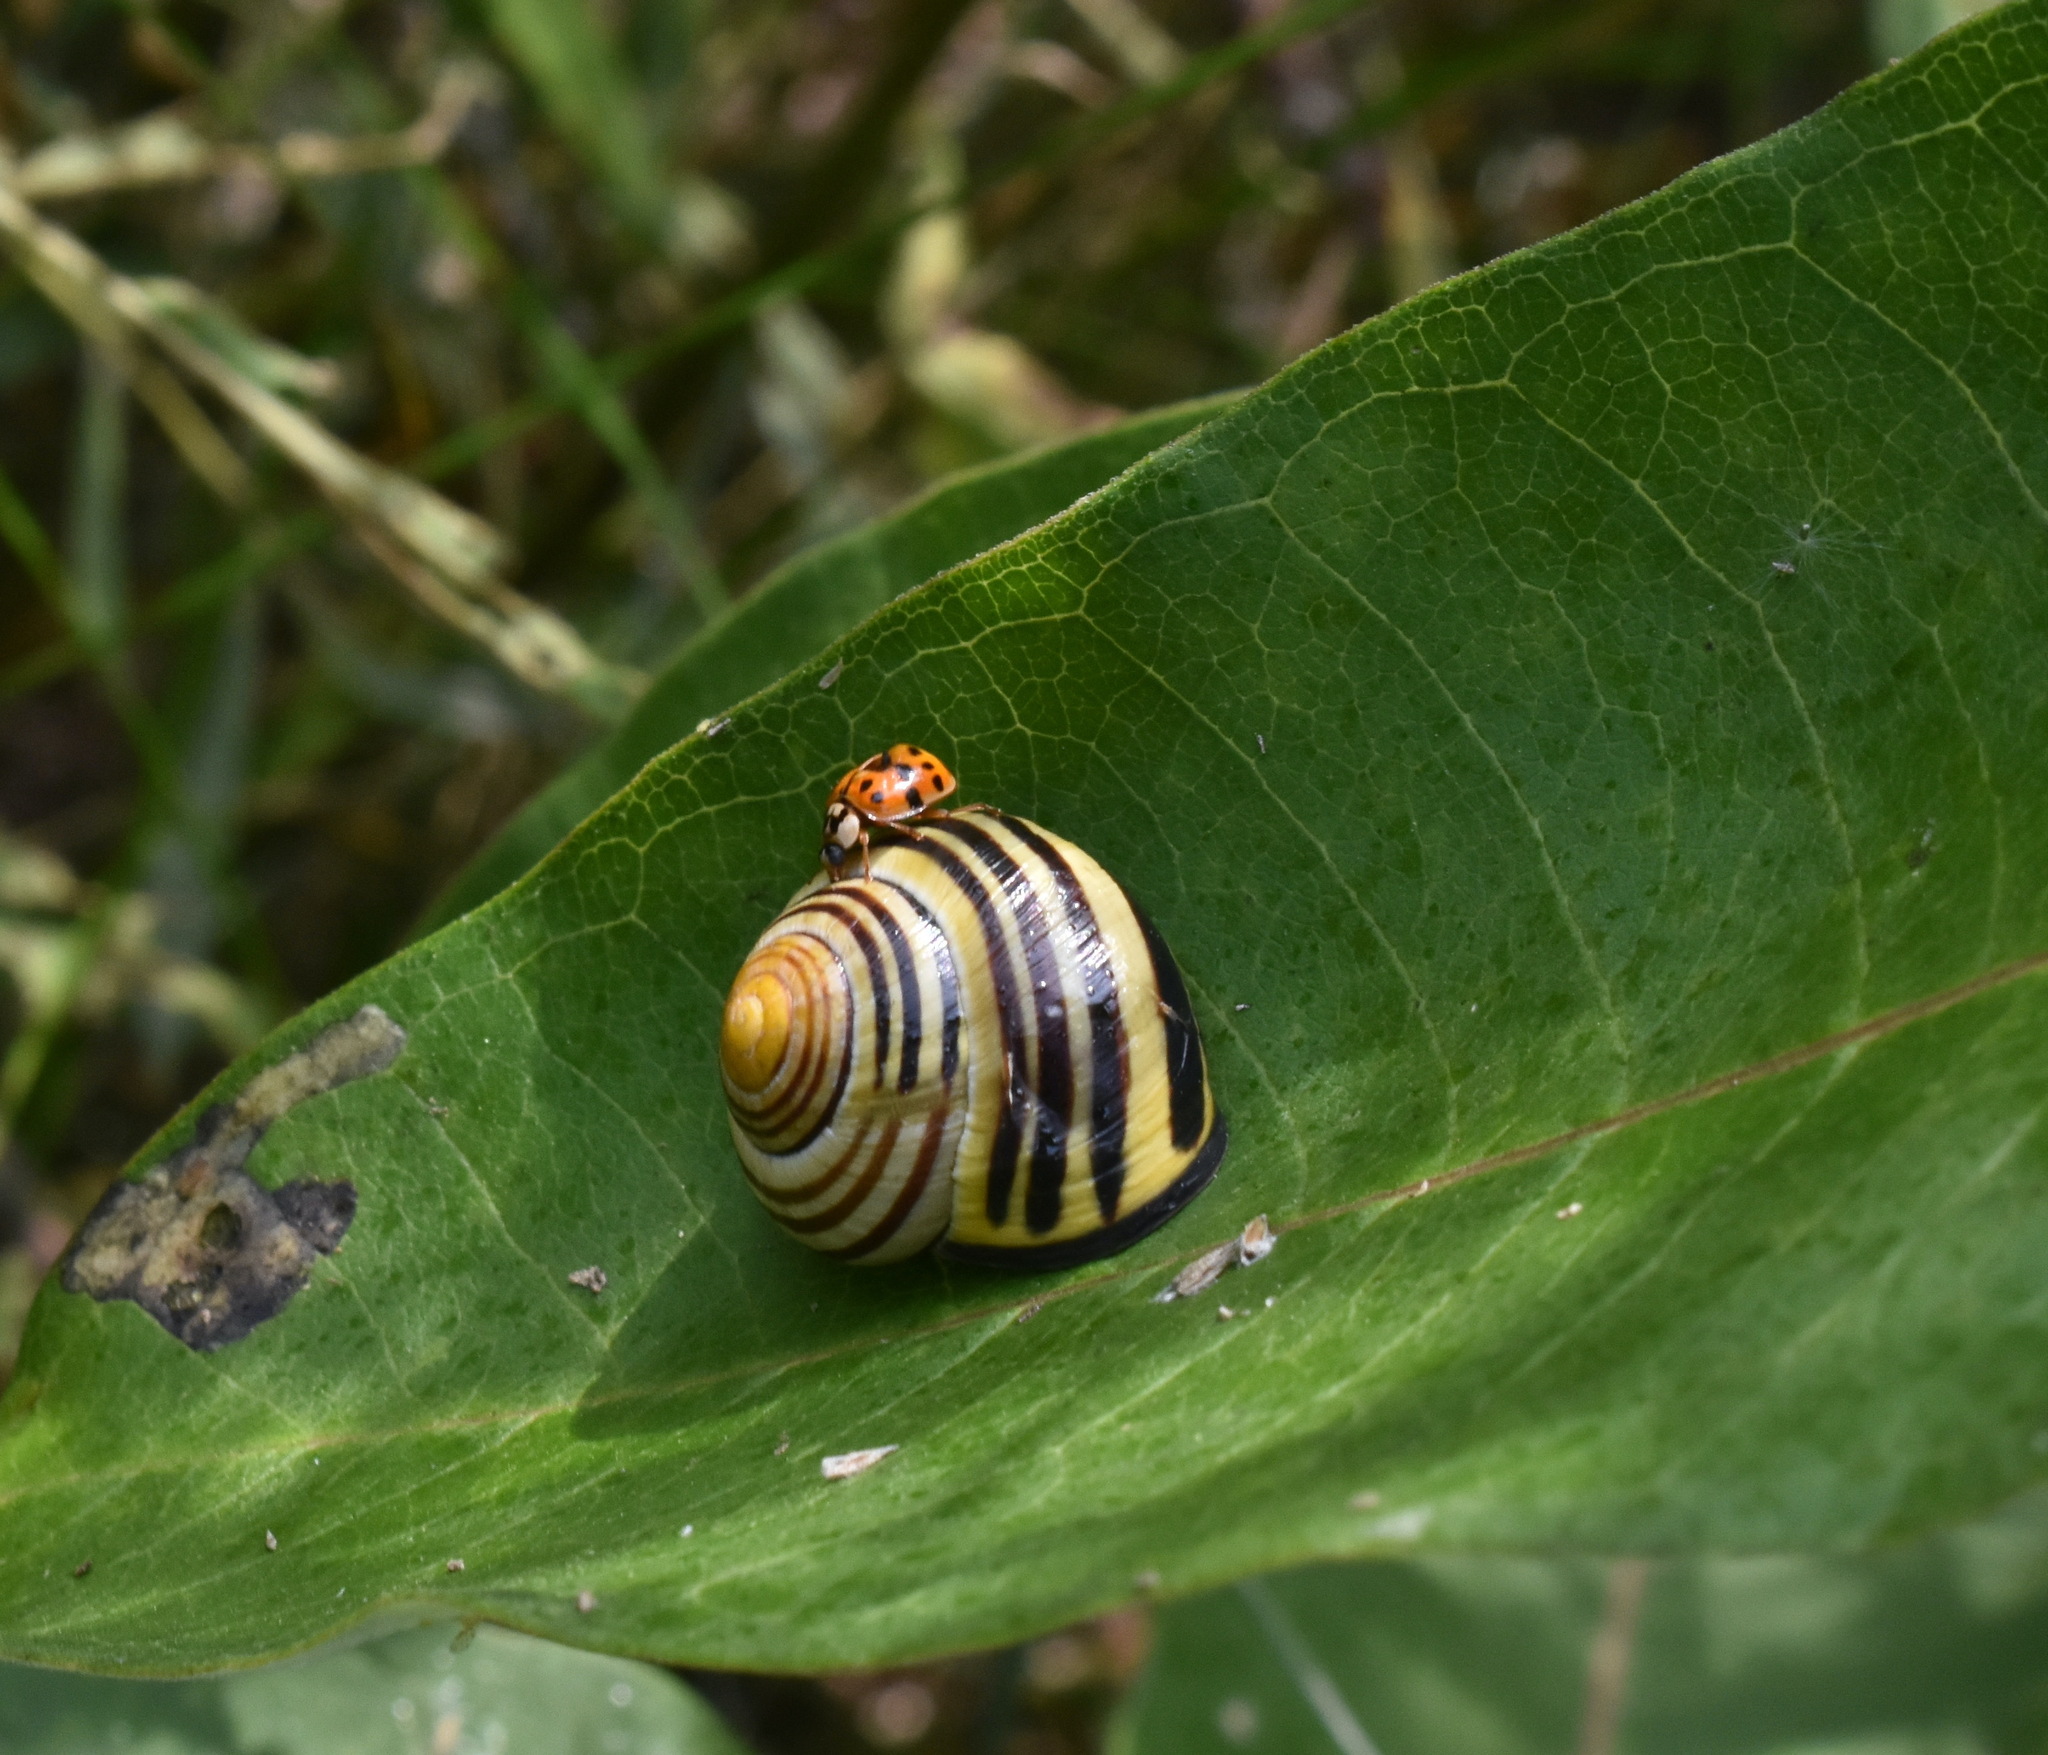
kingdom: Animalia
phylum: Mollusca
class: Gastropoda
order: Stylommatophora
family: Helicidae
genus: Cepaea
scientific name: Cepaea nemoralis
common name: Grovesnail
